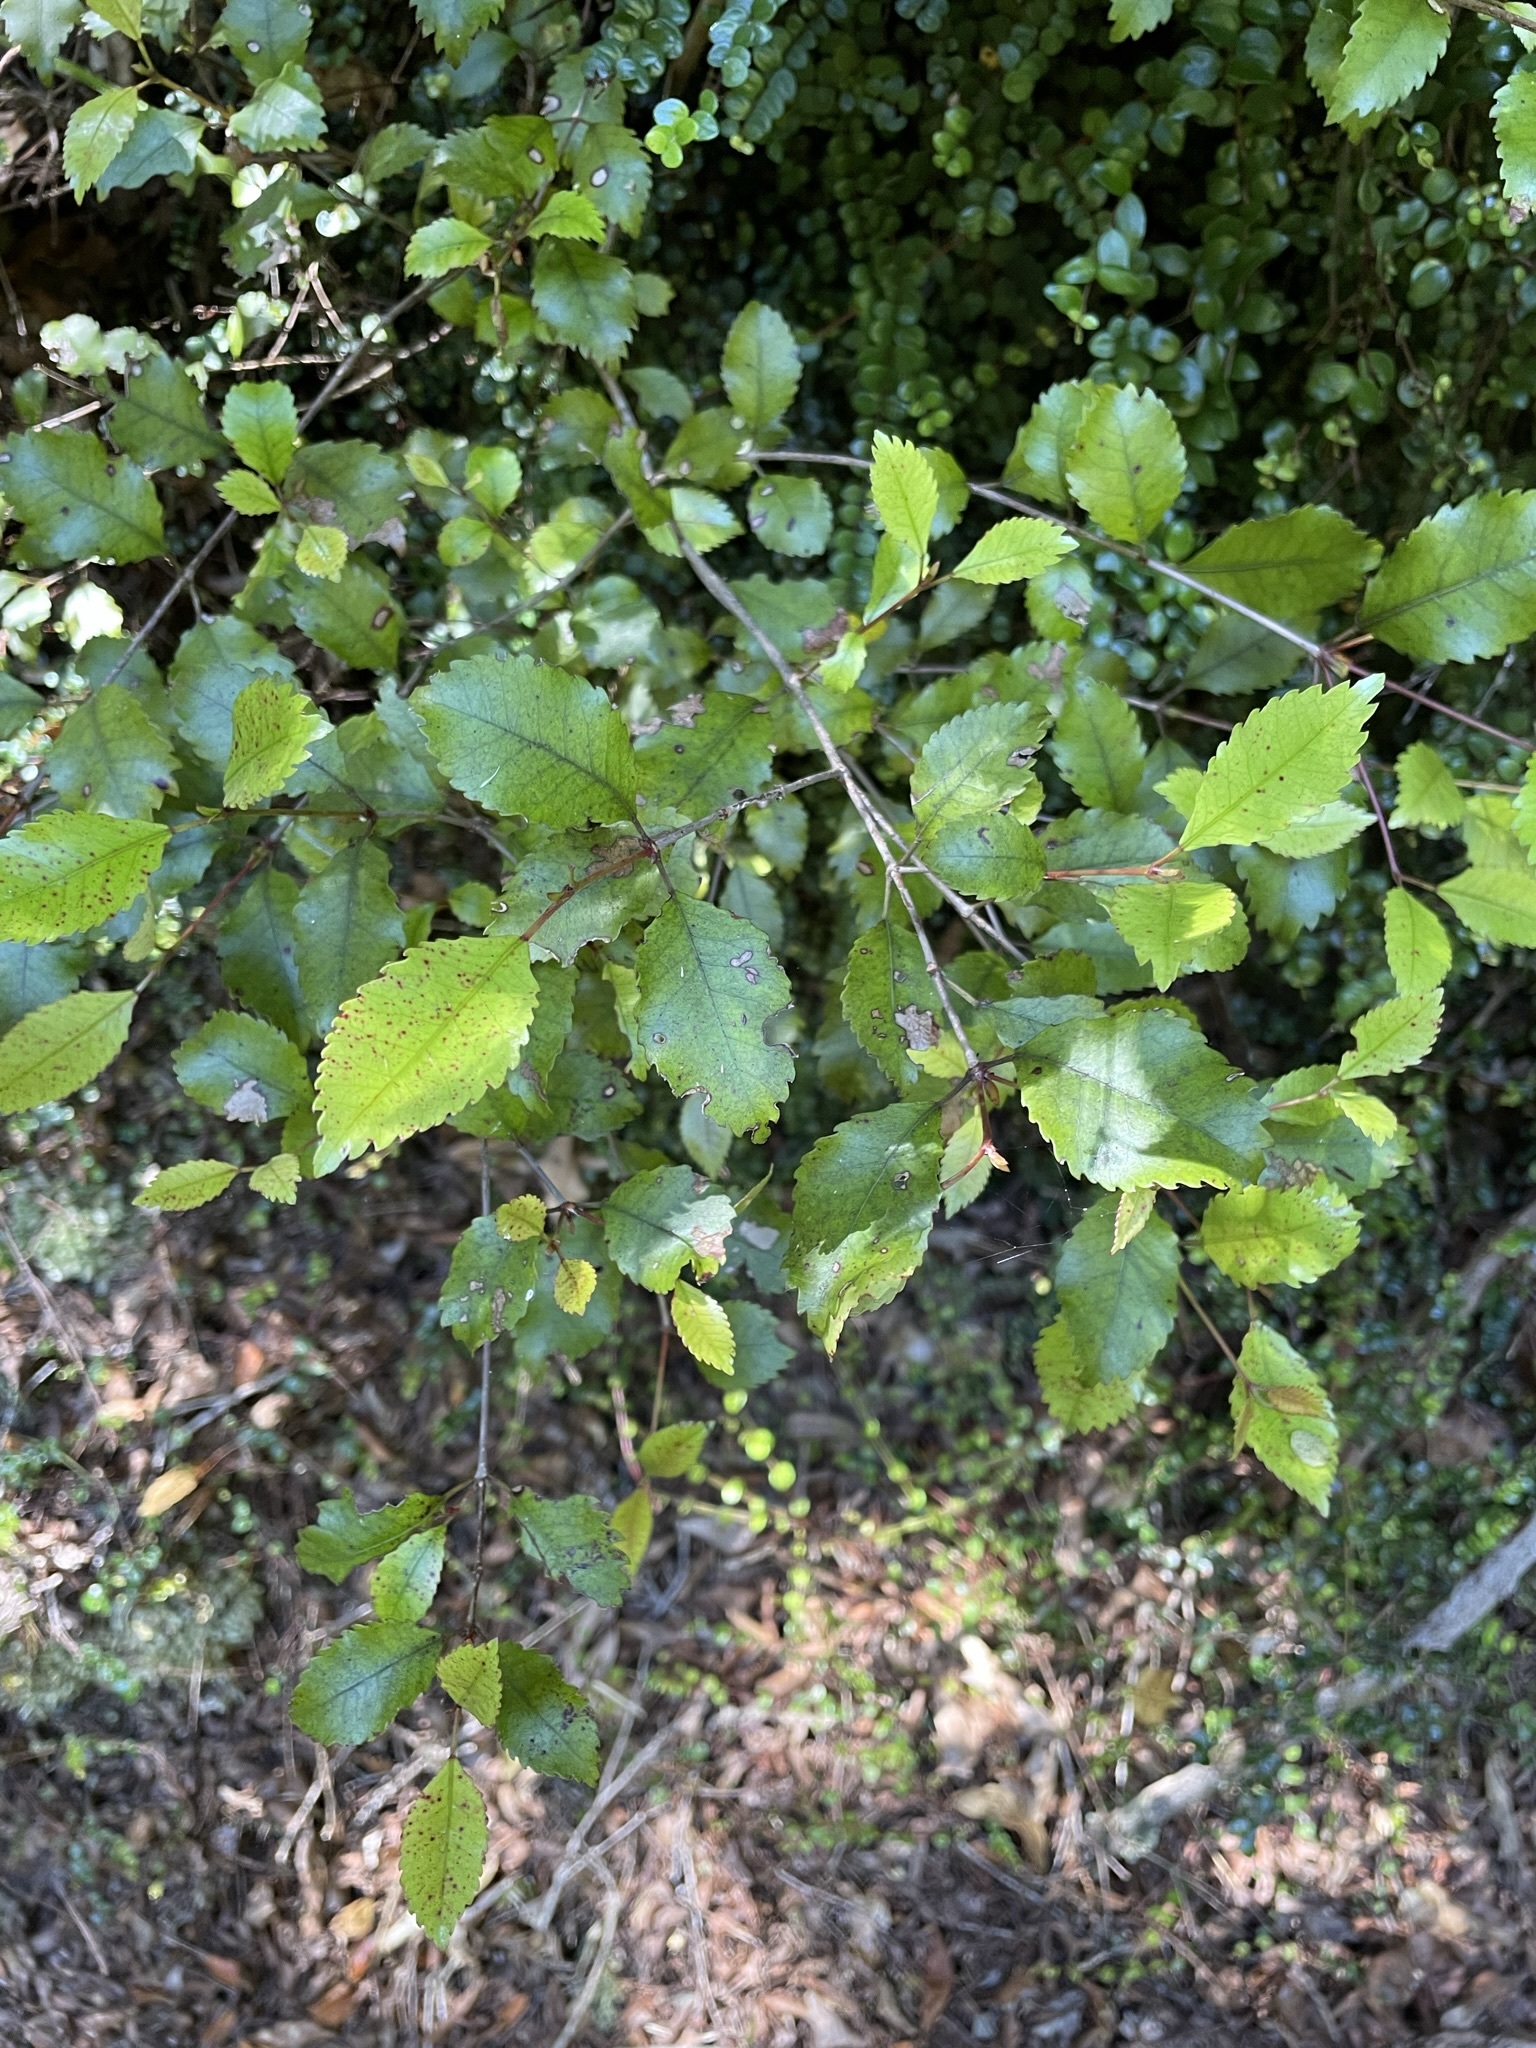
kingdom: Plantae
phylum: Tracheophyta
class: Magnoliopsida
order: Oxalidales
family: Cunoniaceae
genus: Pterophylla
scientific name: Pterophylla racemosa
